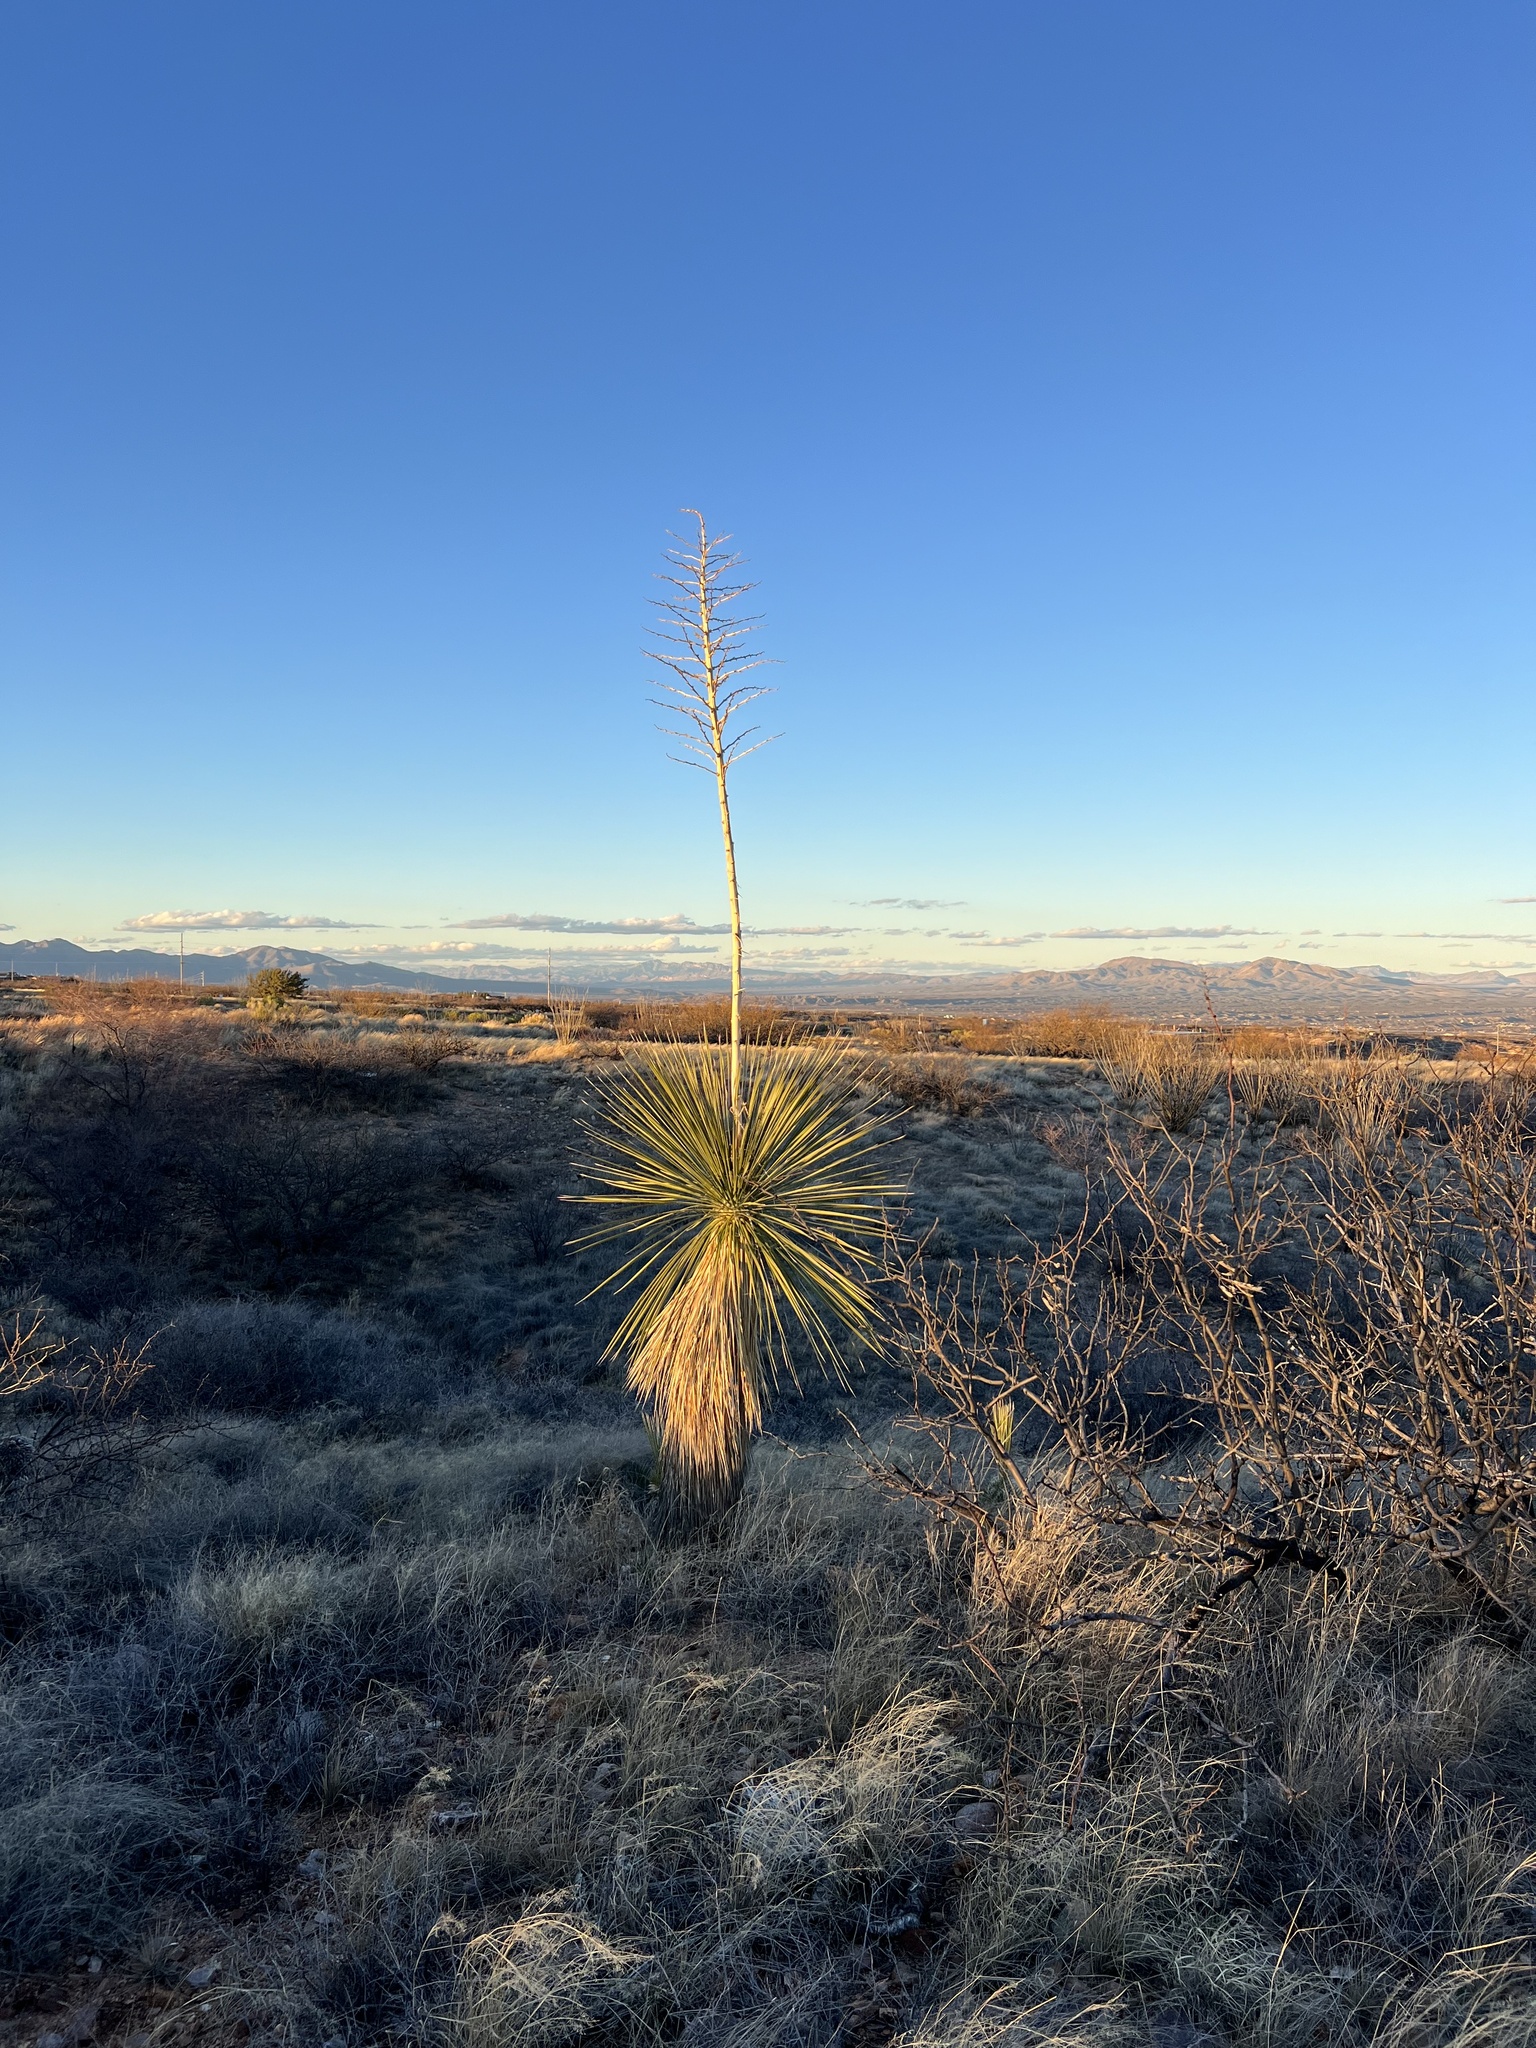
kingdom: Plantae
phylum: Tracheophyta
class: Liliopsida
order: Asparagales
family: Asparagaceae
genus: Yucca
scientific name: Yucca elata
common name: Palmella
